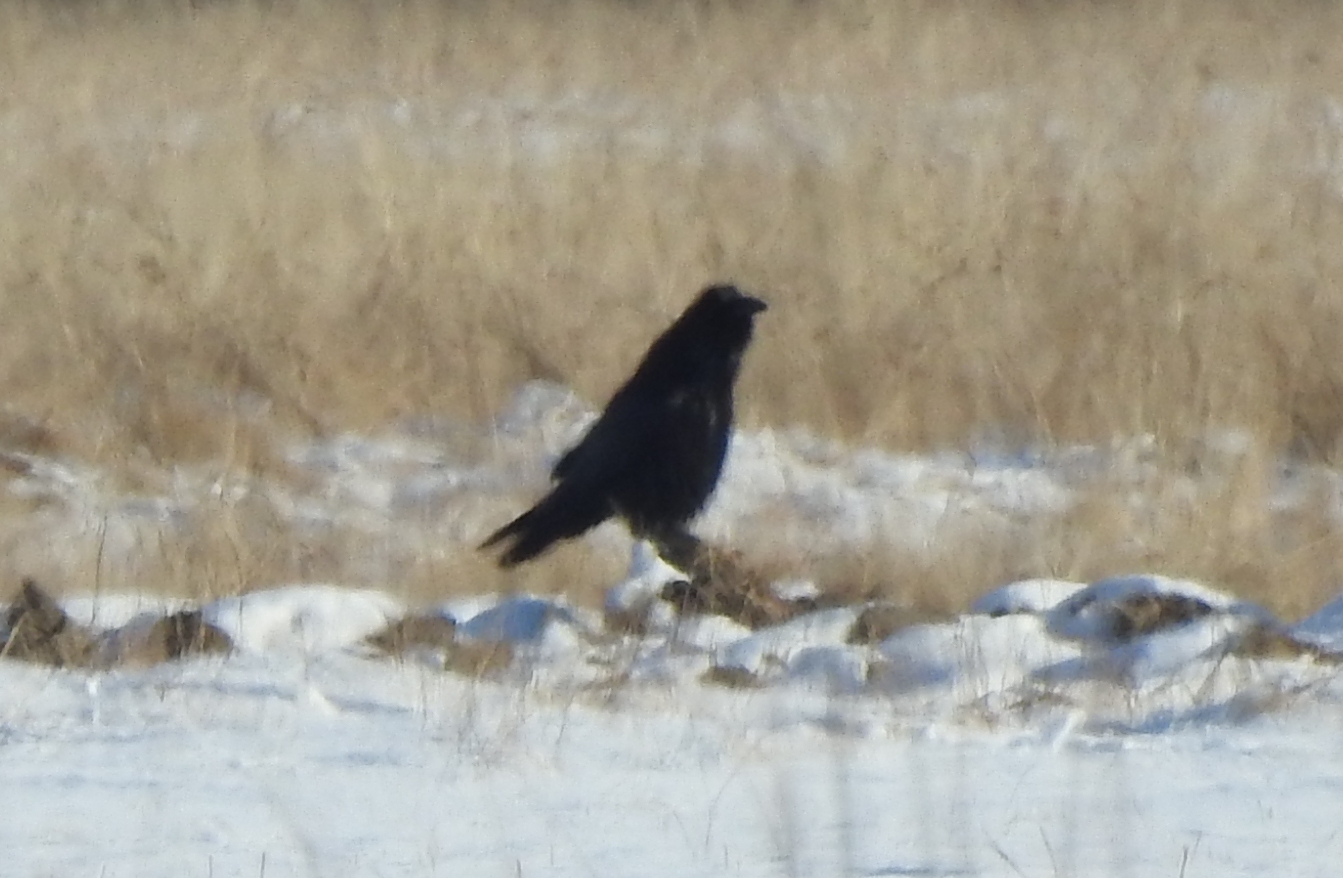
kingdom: Animalia
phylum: Chordata
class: Aves
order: Passeriformes
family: Corvidae
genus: Corvus
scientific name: Corvus corax
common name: Common raven
